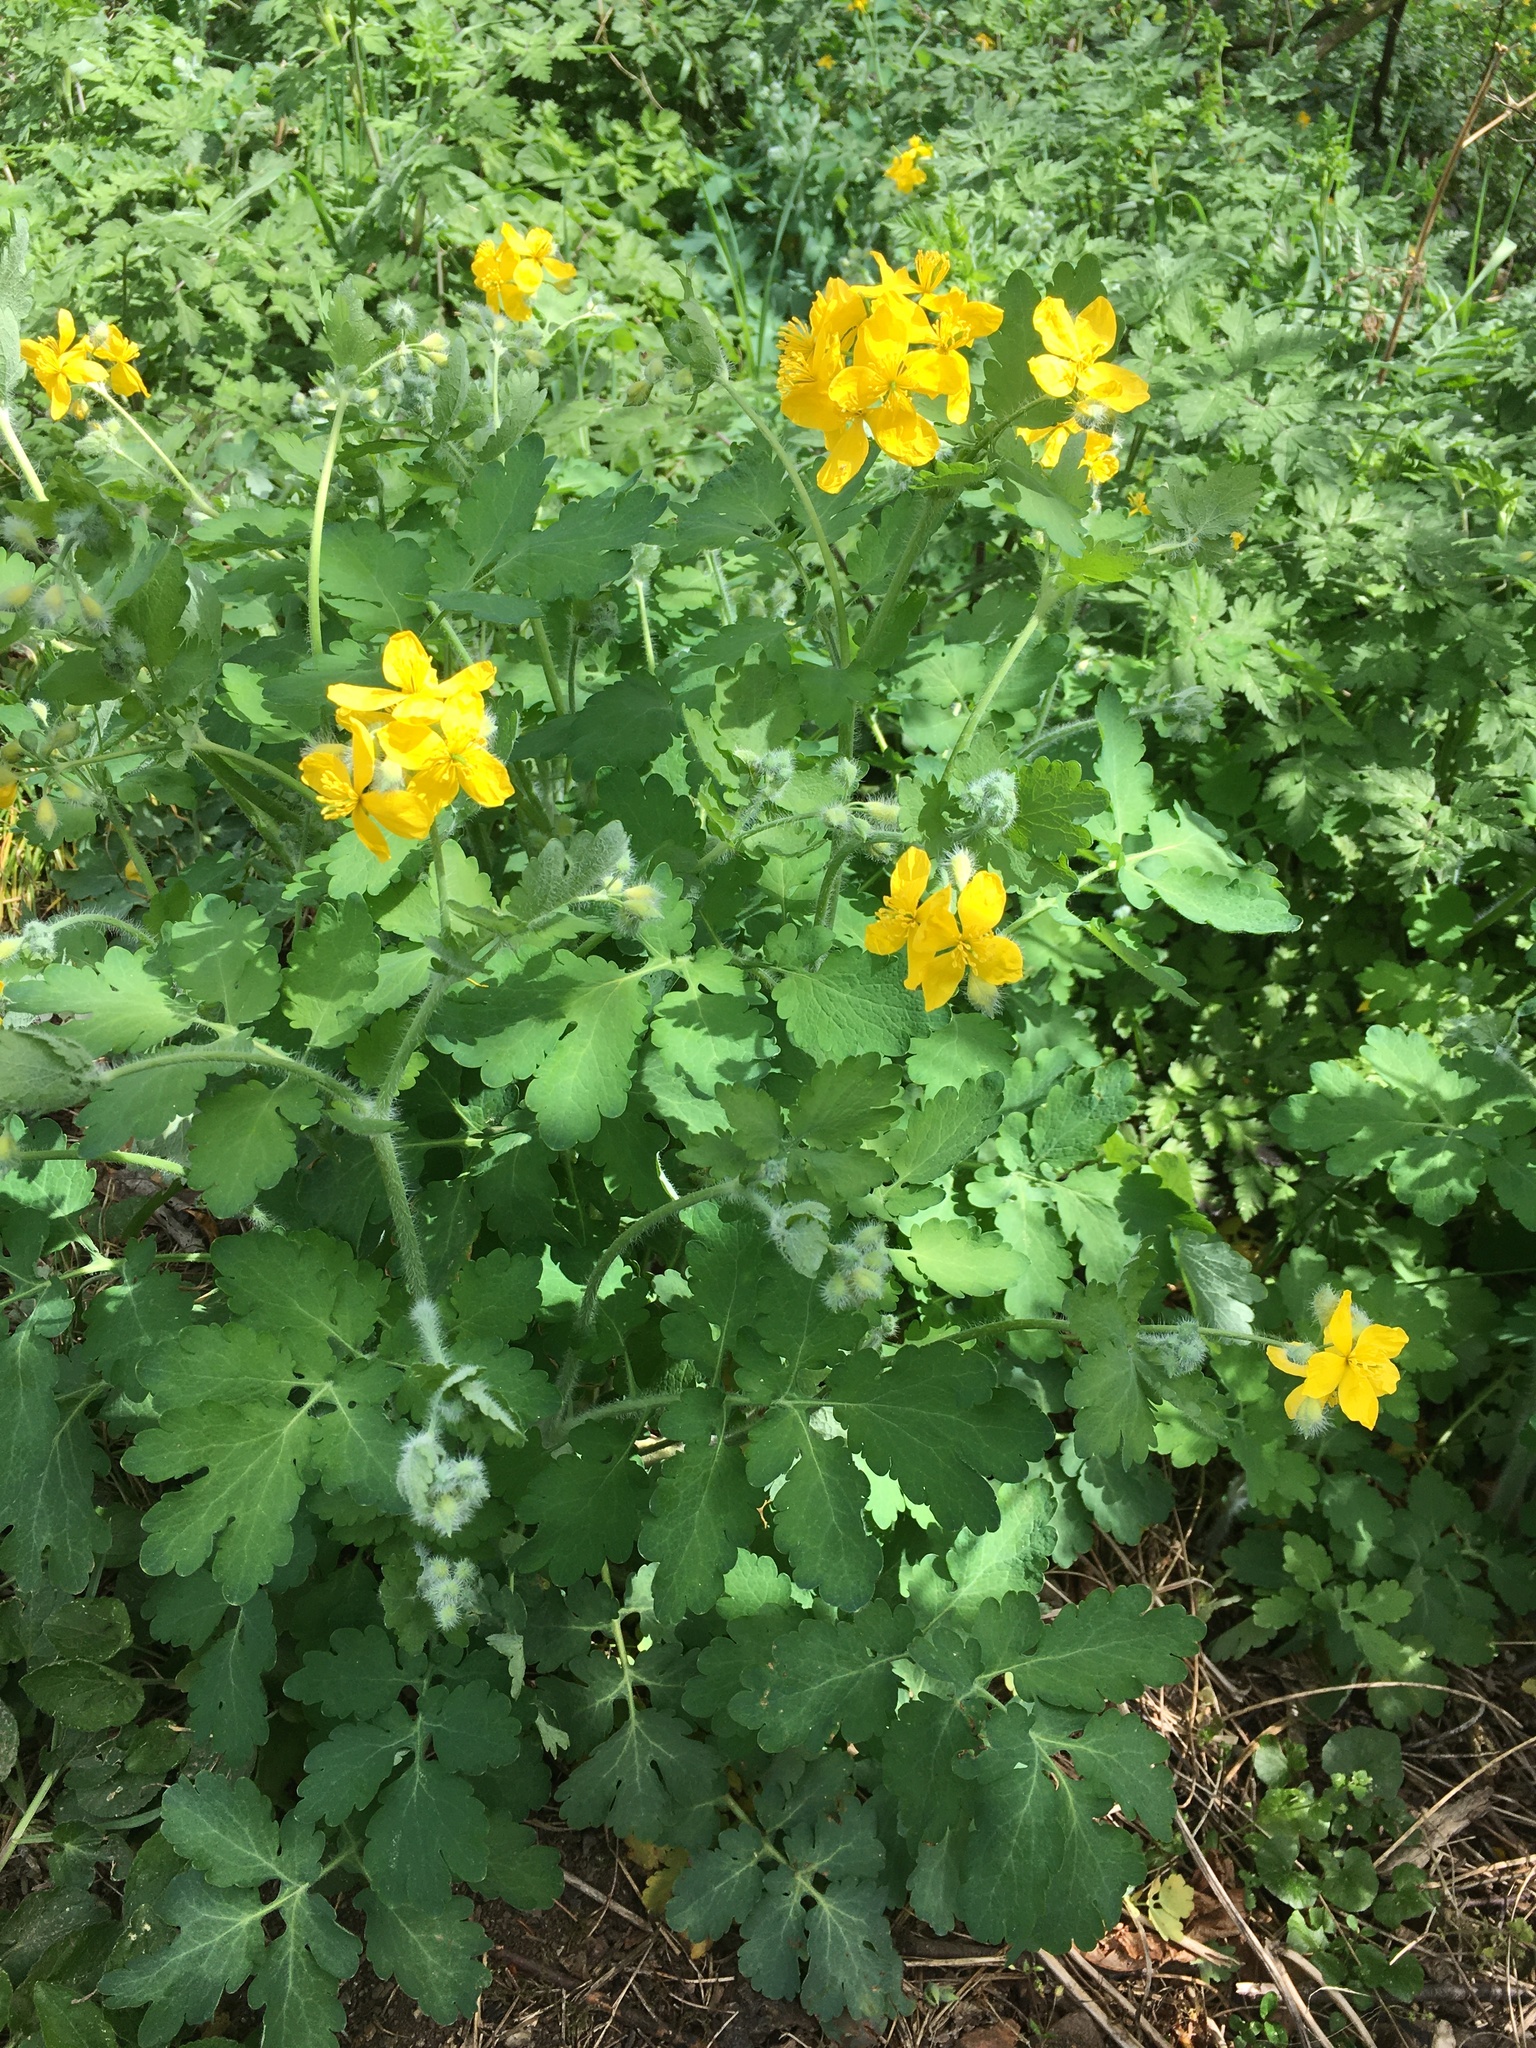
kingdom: Plantae
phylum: Tracheophyta
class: Magnoliopsida
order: Ranunculales
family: Papaveraceae
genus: Chelidonium
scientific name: Chelidonium majus
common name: Greater celandine
